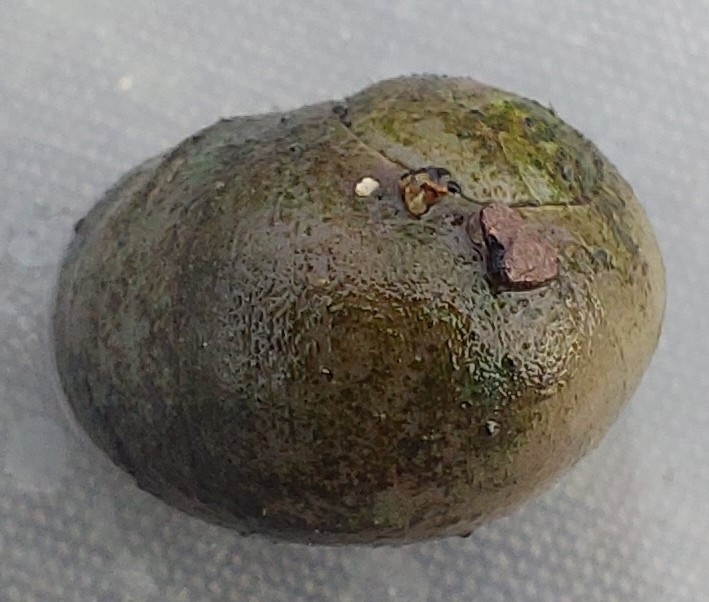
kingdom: Animalia
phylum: Mollusca
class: Gastropoda
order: Littorinimorpha
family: Littorinidae
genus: Littorina
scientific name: Littorina
